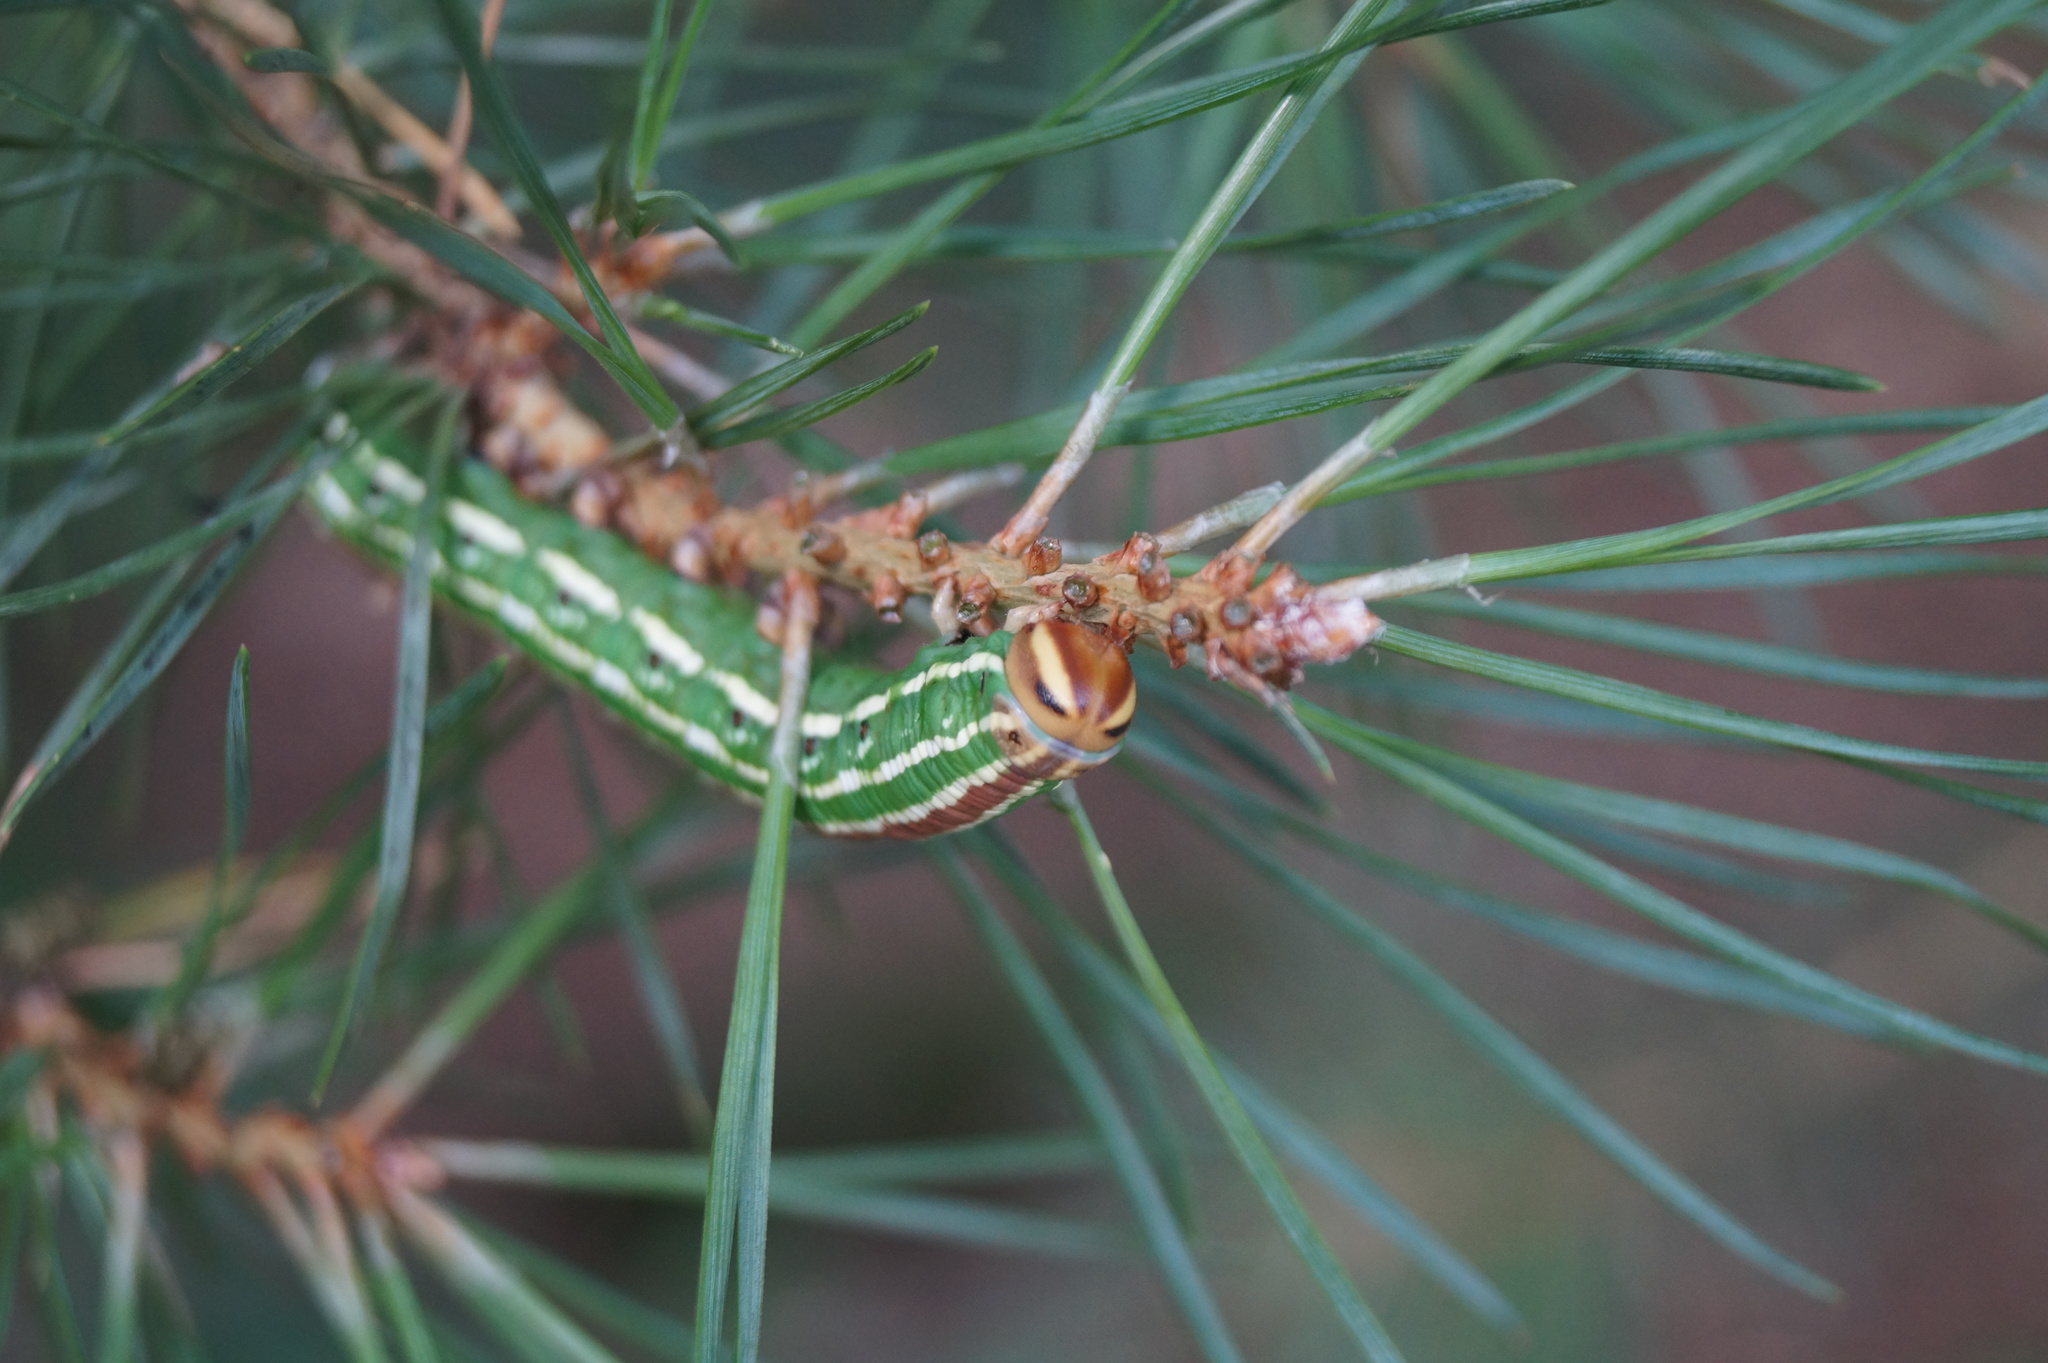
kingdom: Animalia
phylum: Arthropoda
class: Insecta
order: Lepidoptera
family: Sphingidae
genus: Sphinx
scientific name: Sphinx pinastri
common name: Pine hawk-moth
